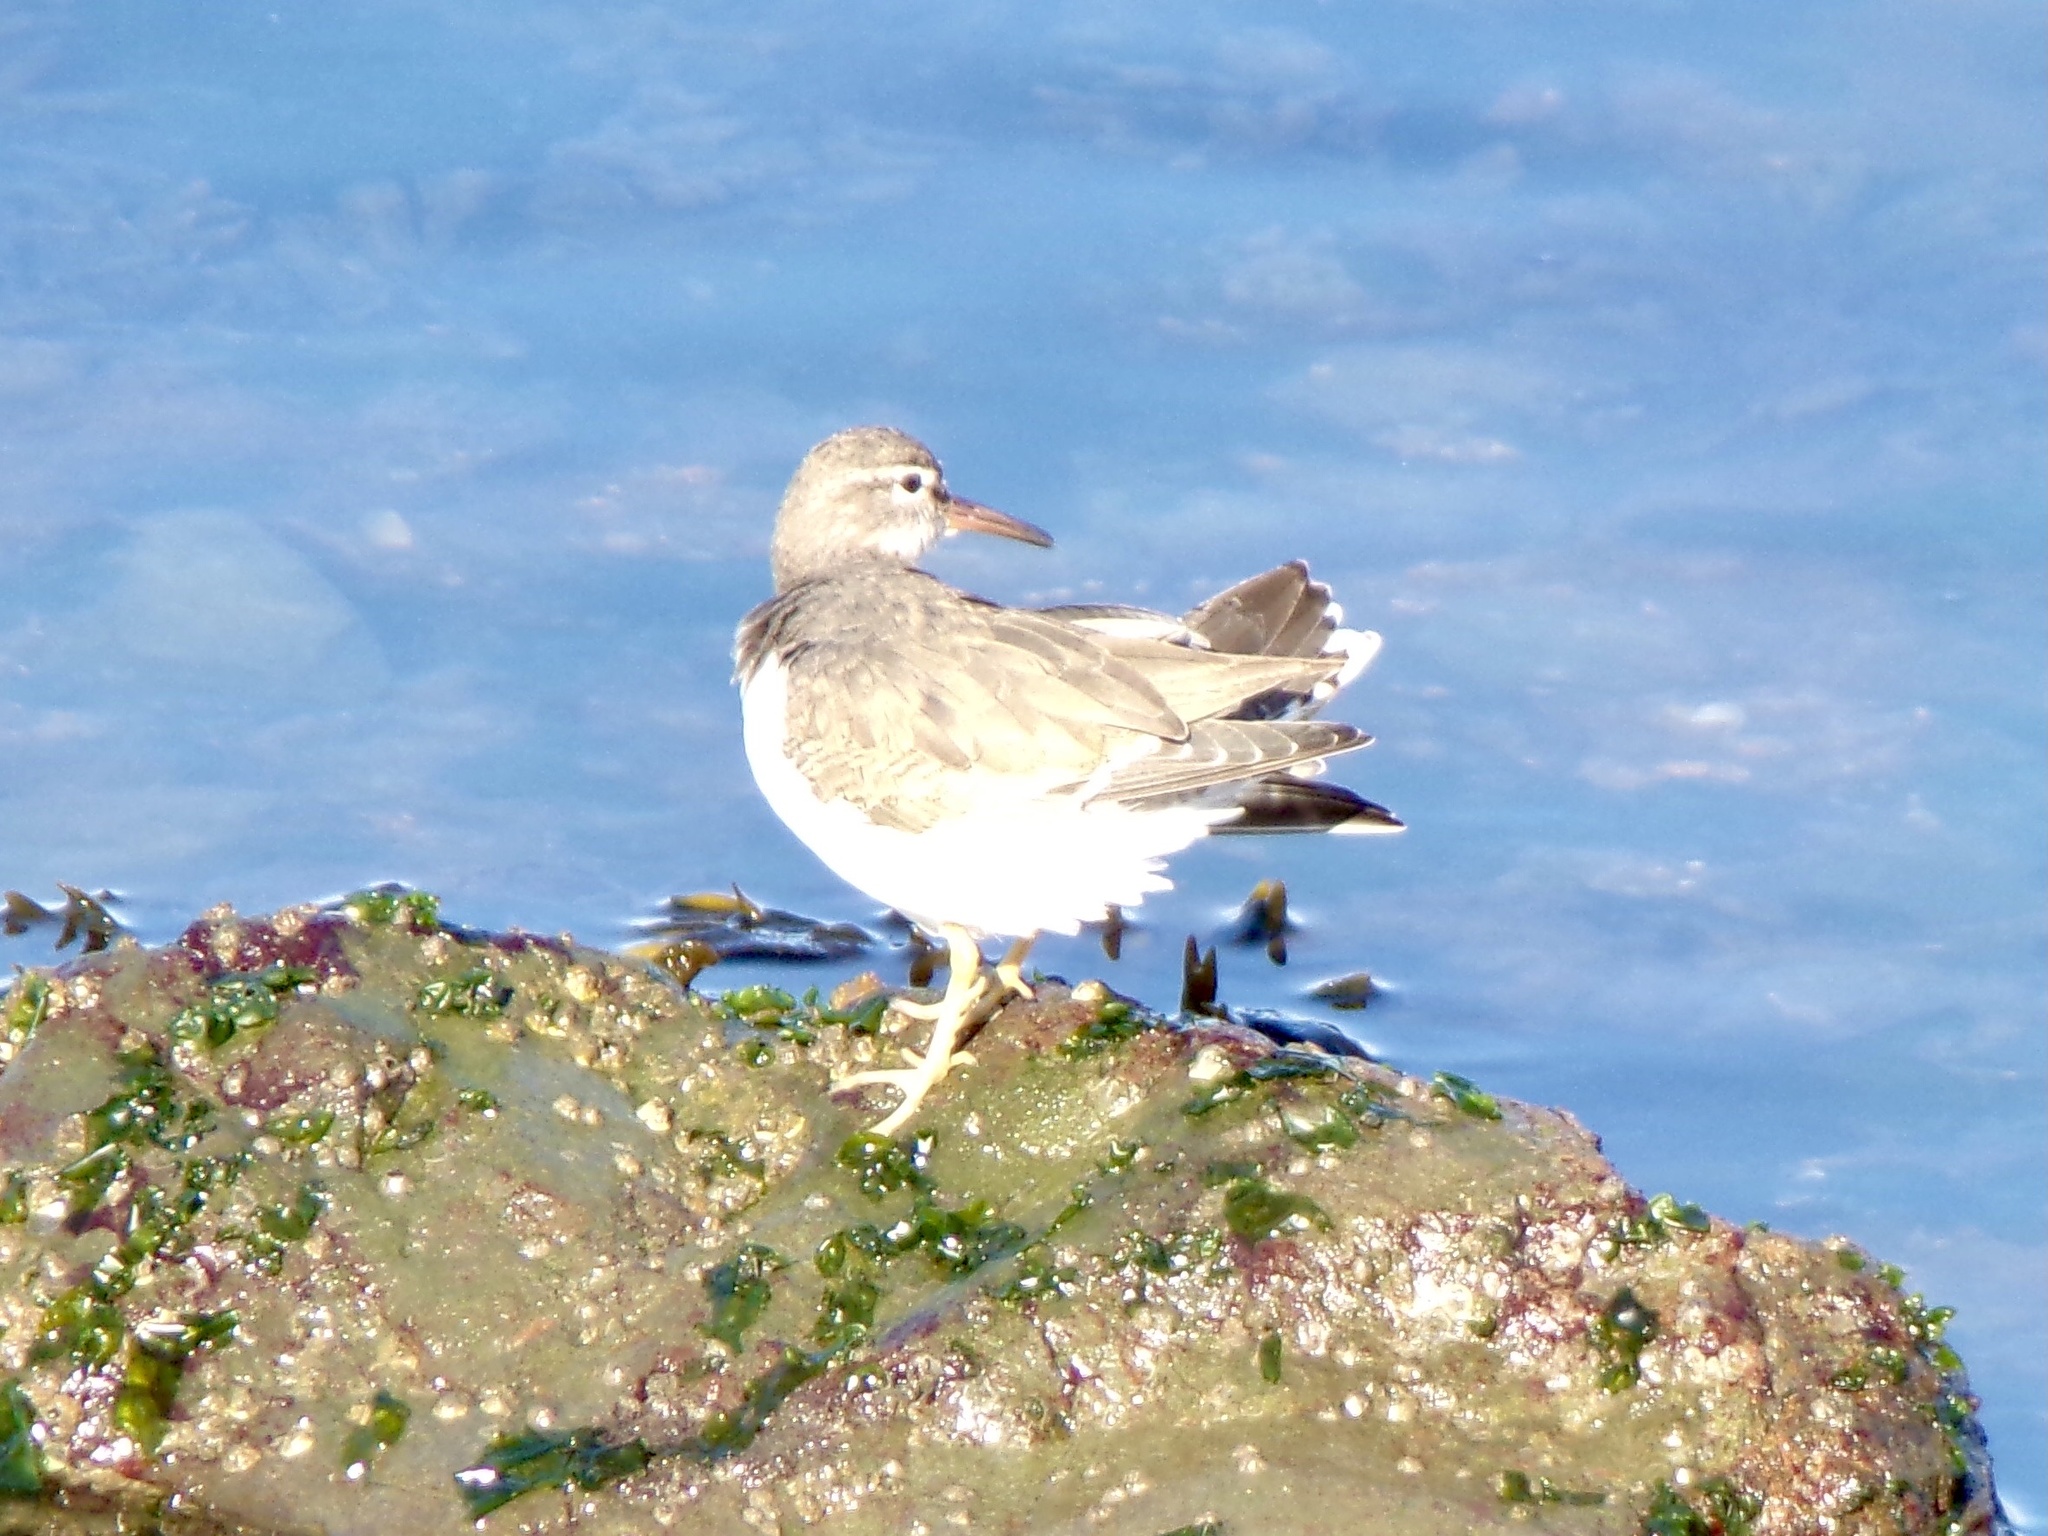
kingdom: Animalia
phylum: Chordata
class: Aves
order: Charadriiformes
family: Scolopacidae
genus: Actitis
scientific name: Actitis macularius
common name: Spotted sandpiper
